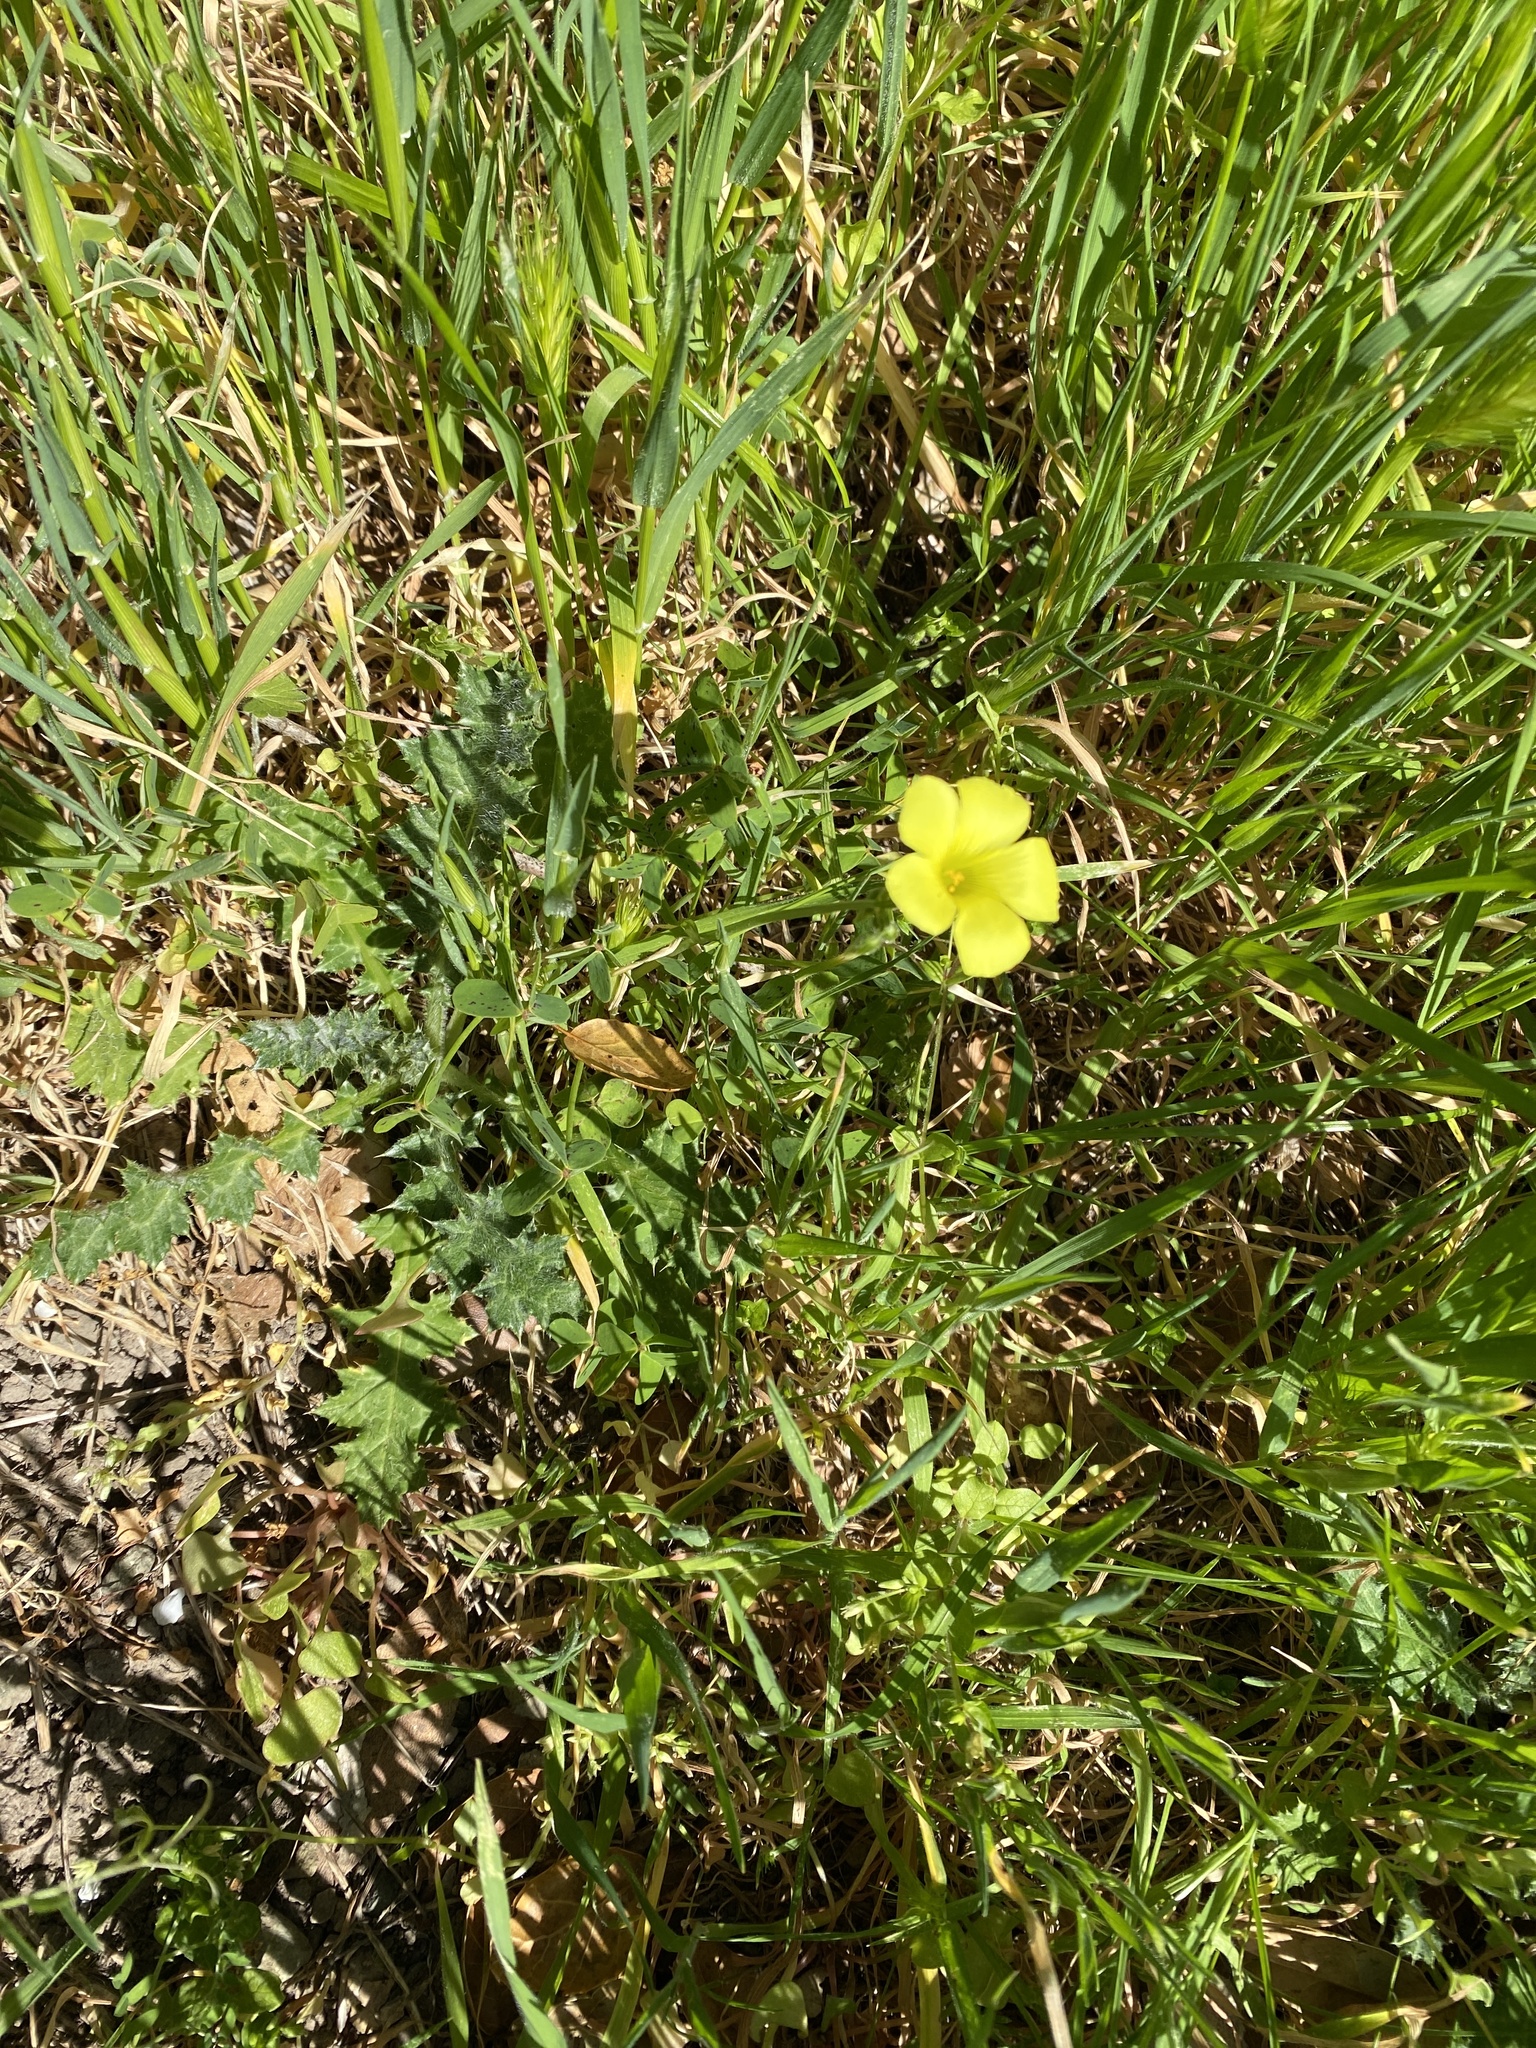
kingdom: Plantae
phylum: Tracheophyta
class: Magnoliopsida
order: Oxalidales
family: Oxalidaceae
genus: Oxalis
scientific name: Oxalis pes-caprae
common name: Bermuda-buttercup
